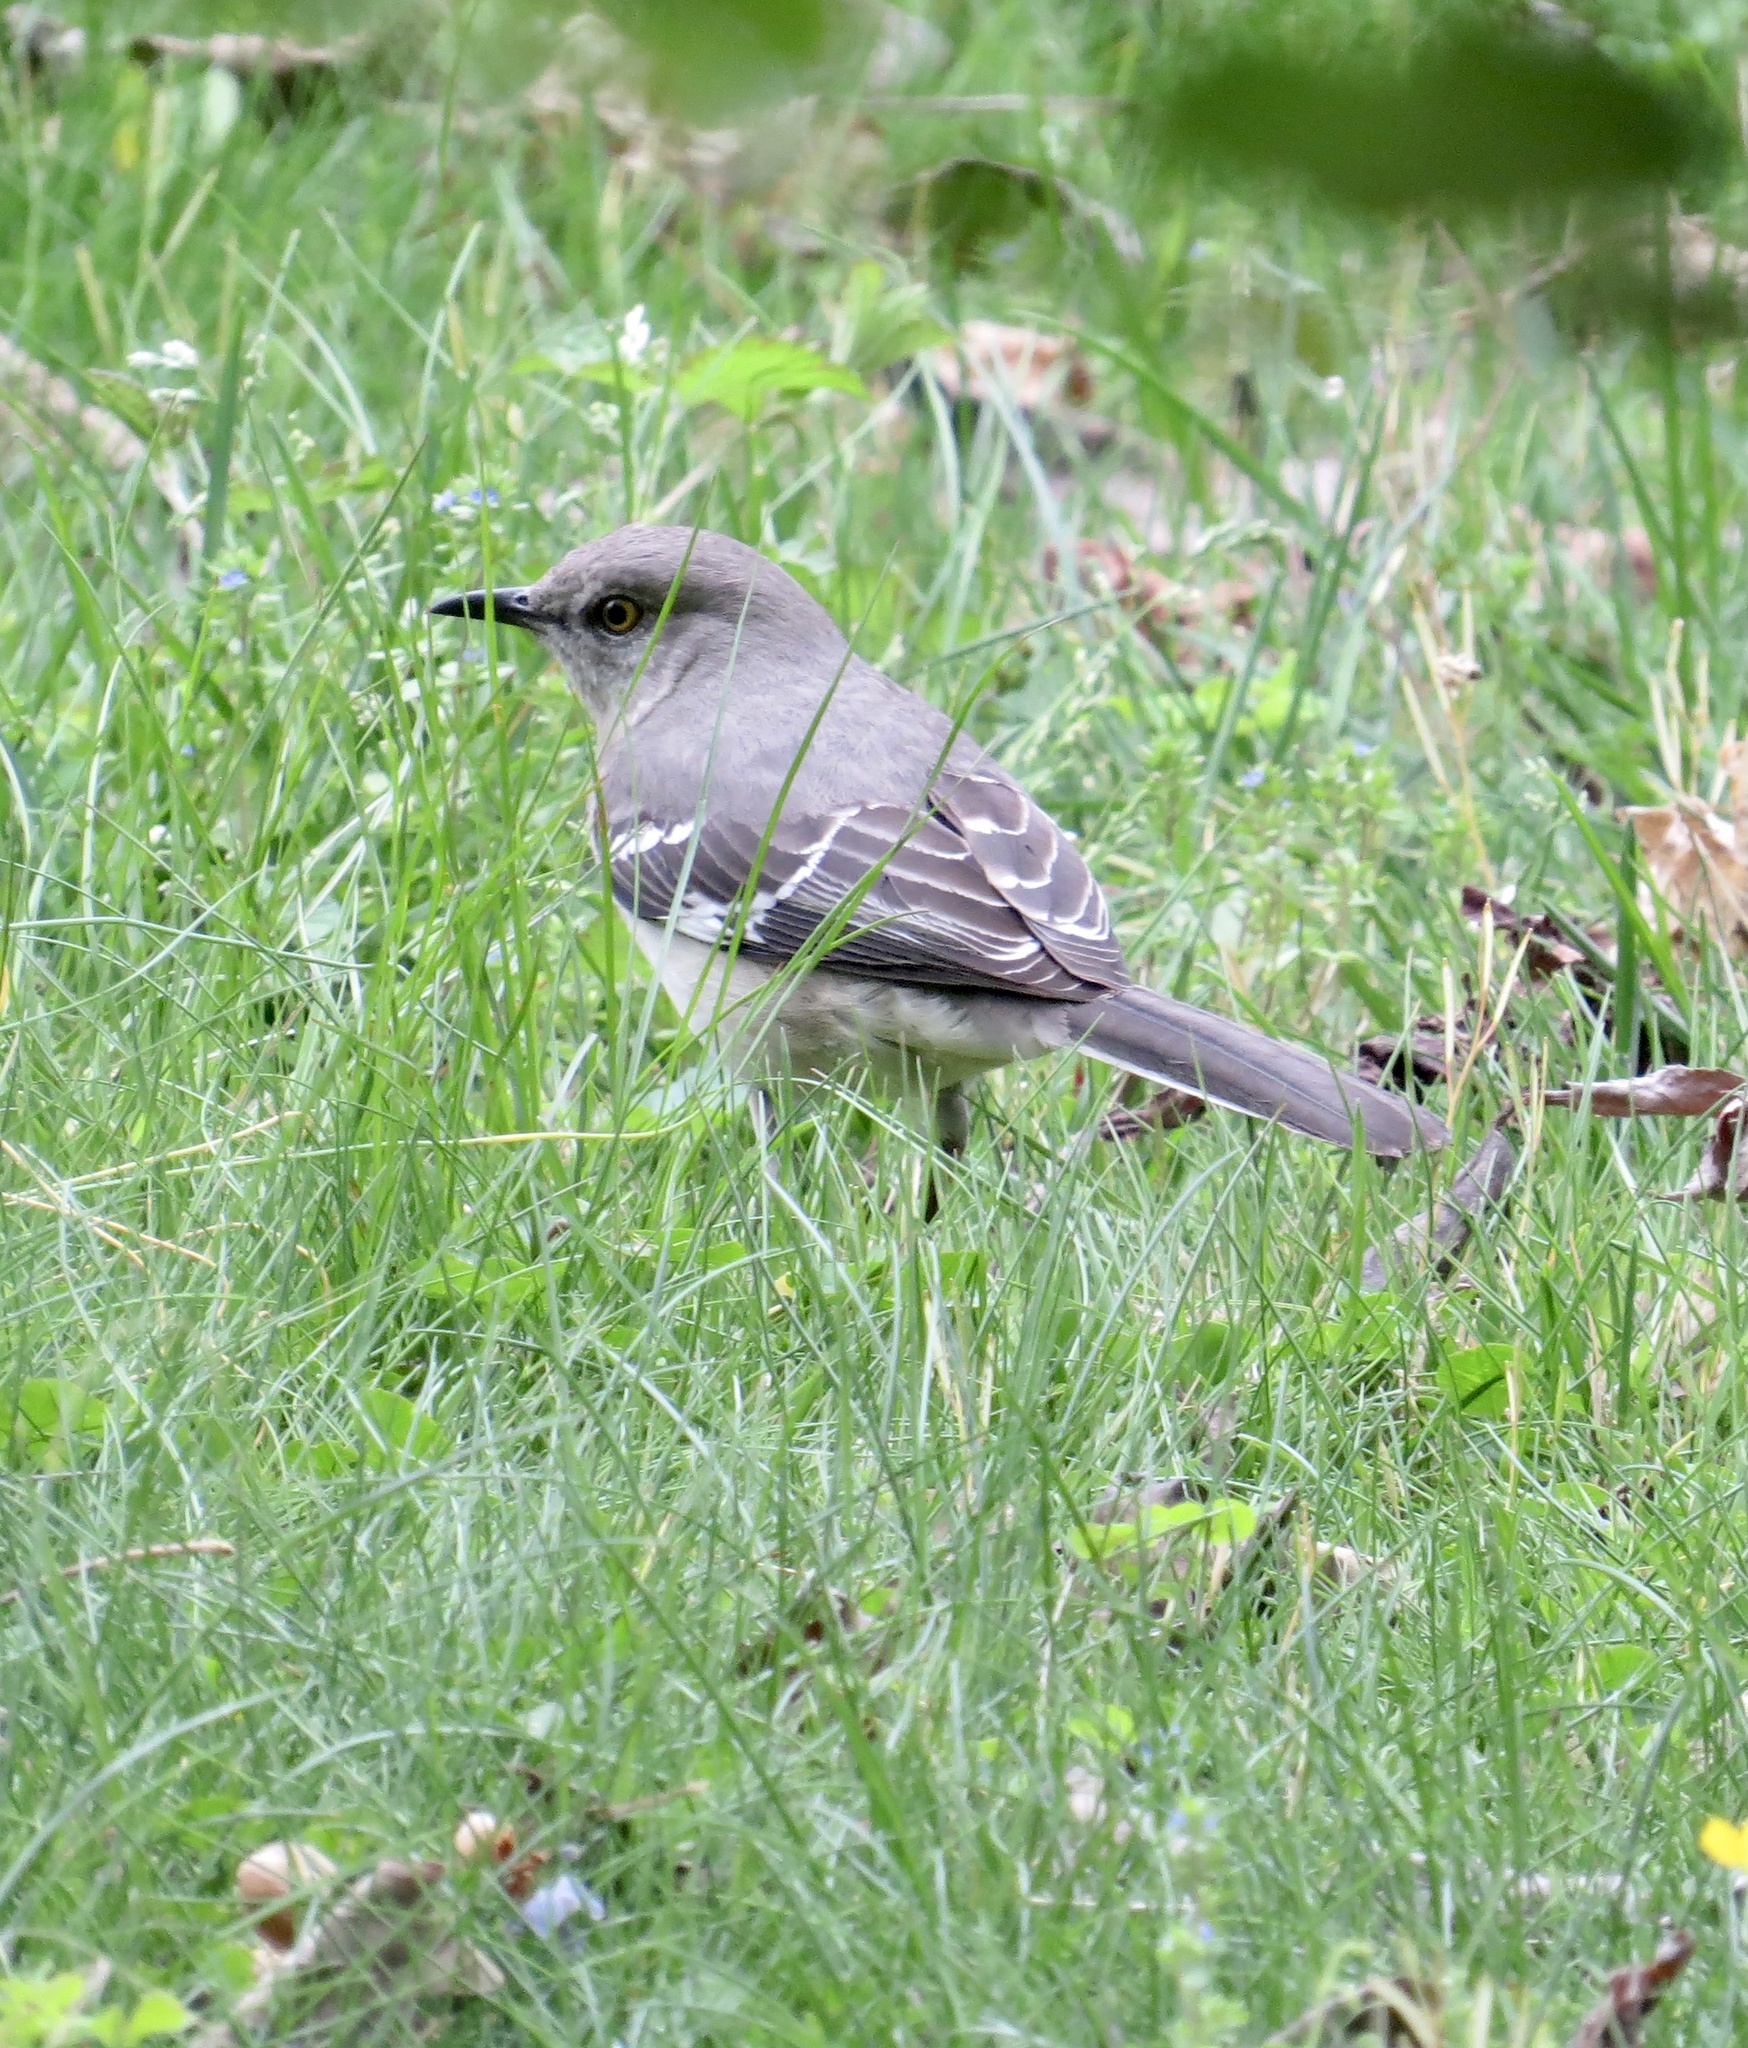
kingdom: Animalia
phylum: Chordata
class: Aves
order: Passeriformes
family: Mimidae
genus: Mimus
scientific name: Mimus polyglottos
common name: Northern mockingbird
